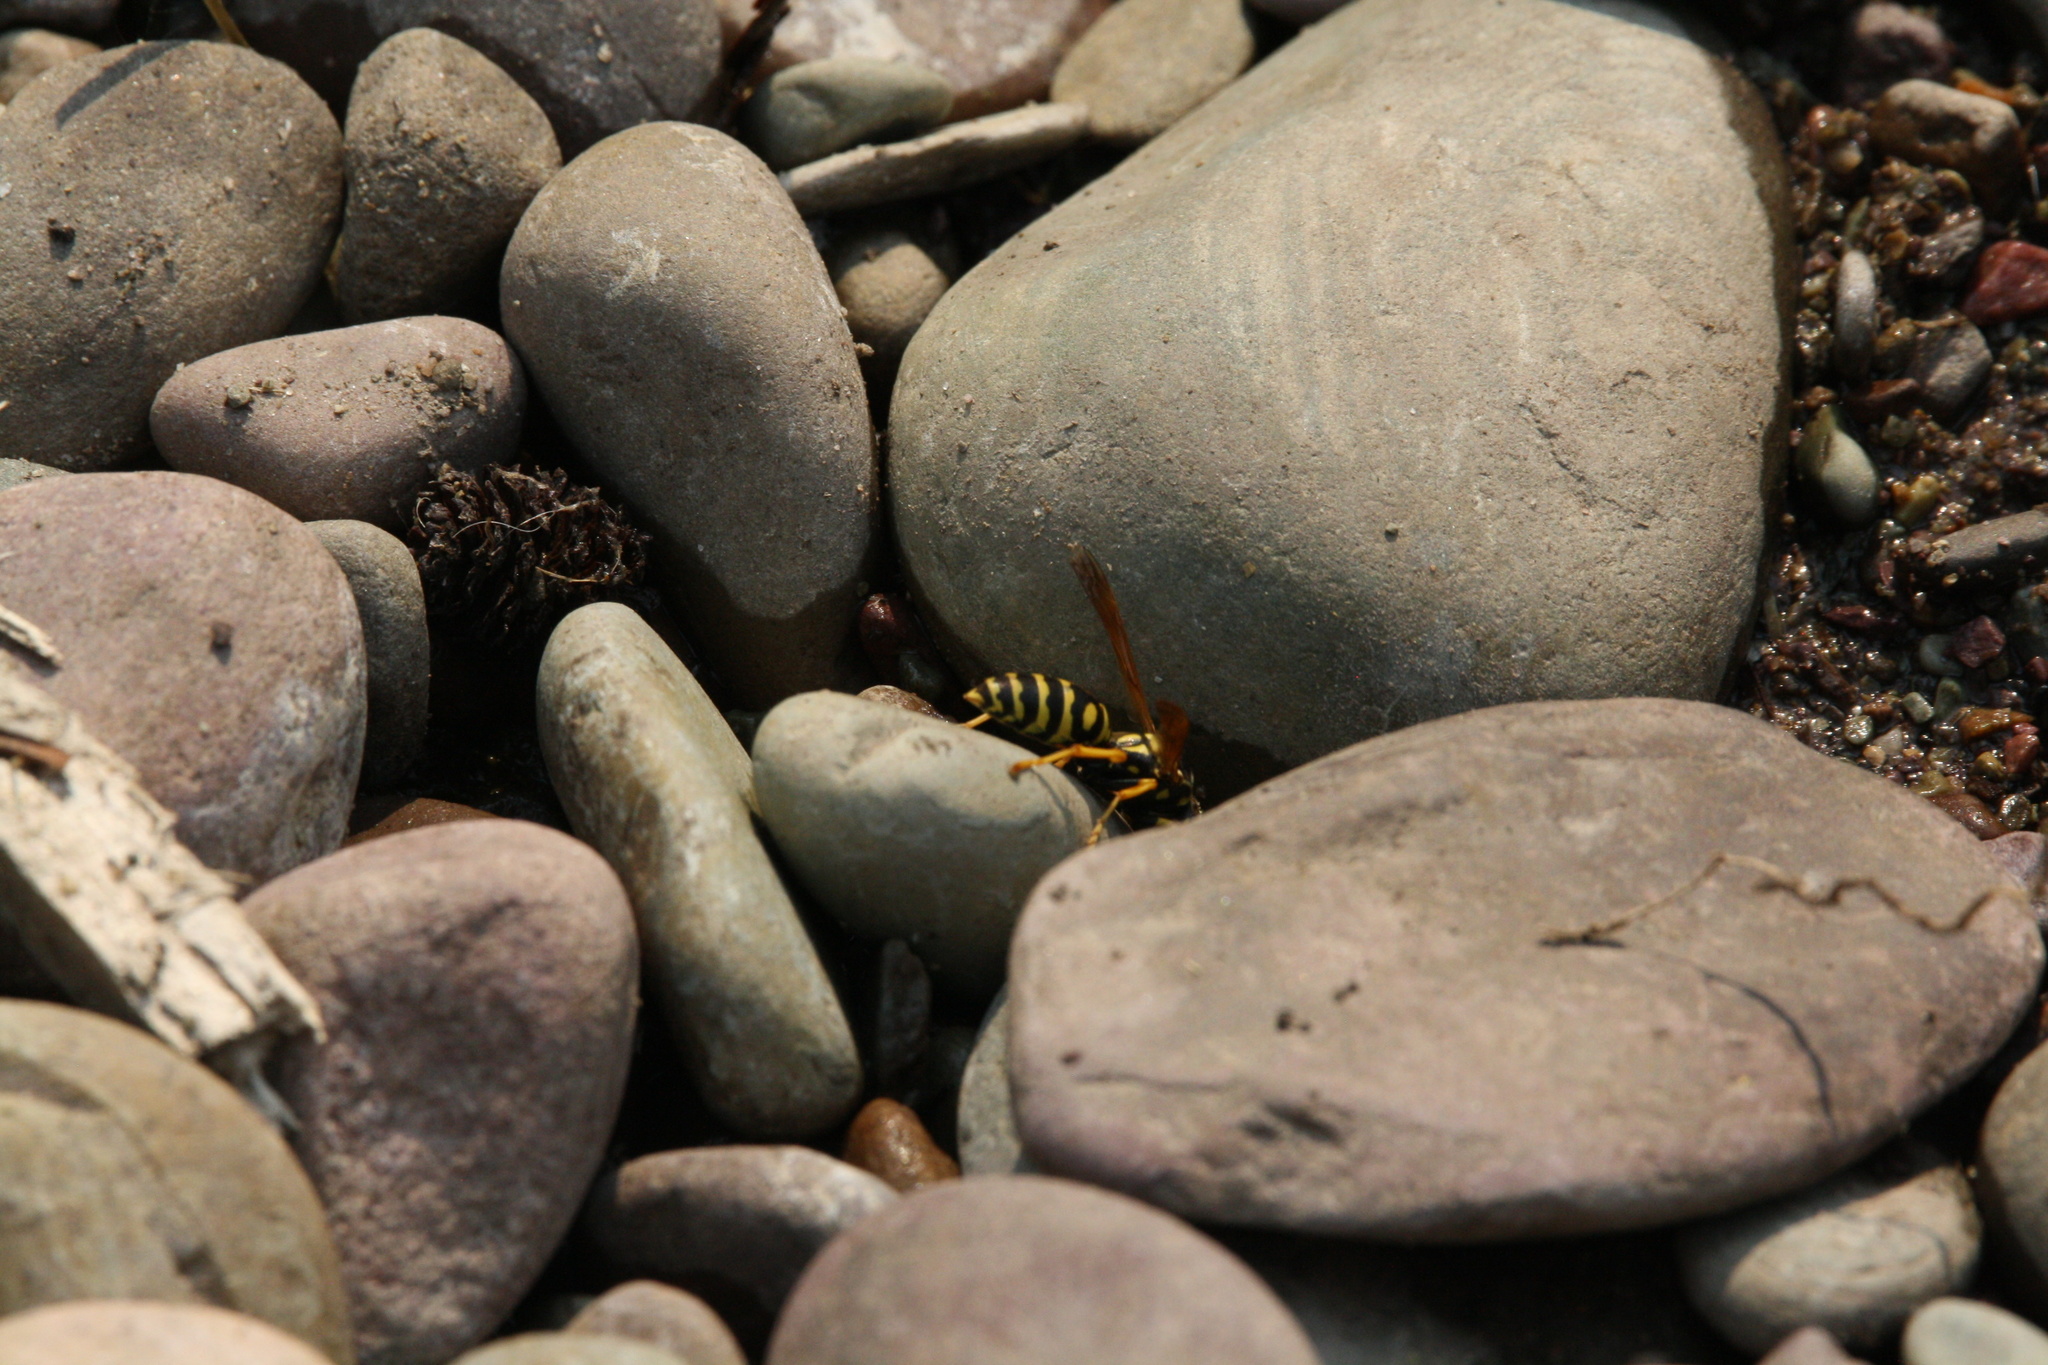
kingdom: Animalia
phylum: Arthropoda
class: Insecta
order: Hymenoptera
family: Eumenidae
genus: Polistes
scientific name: Polistes dominula
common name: Paper wasp
